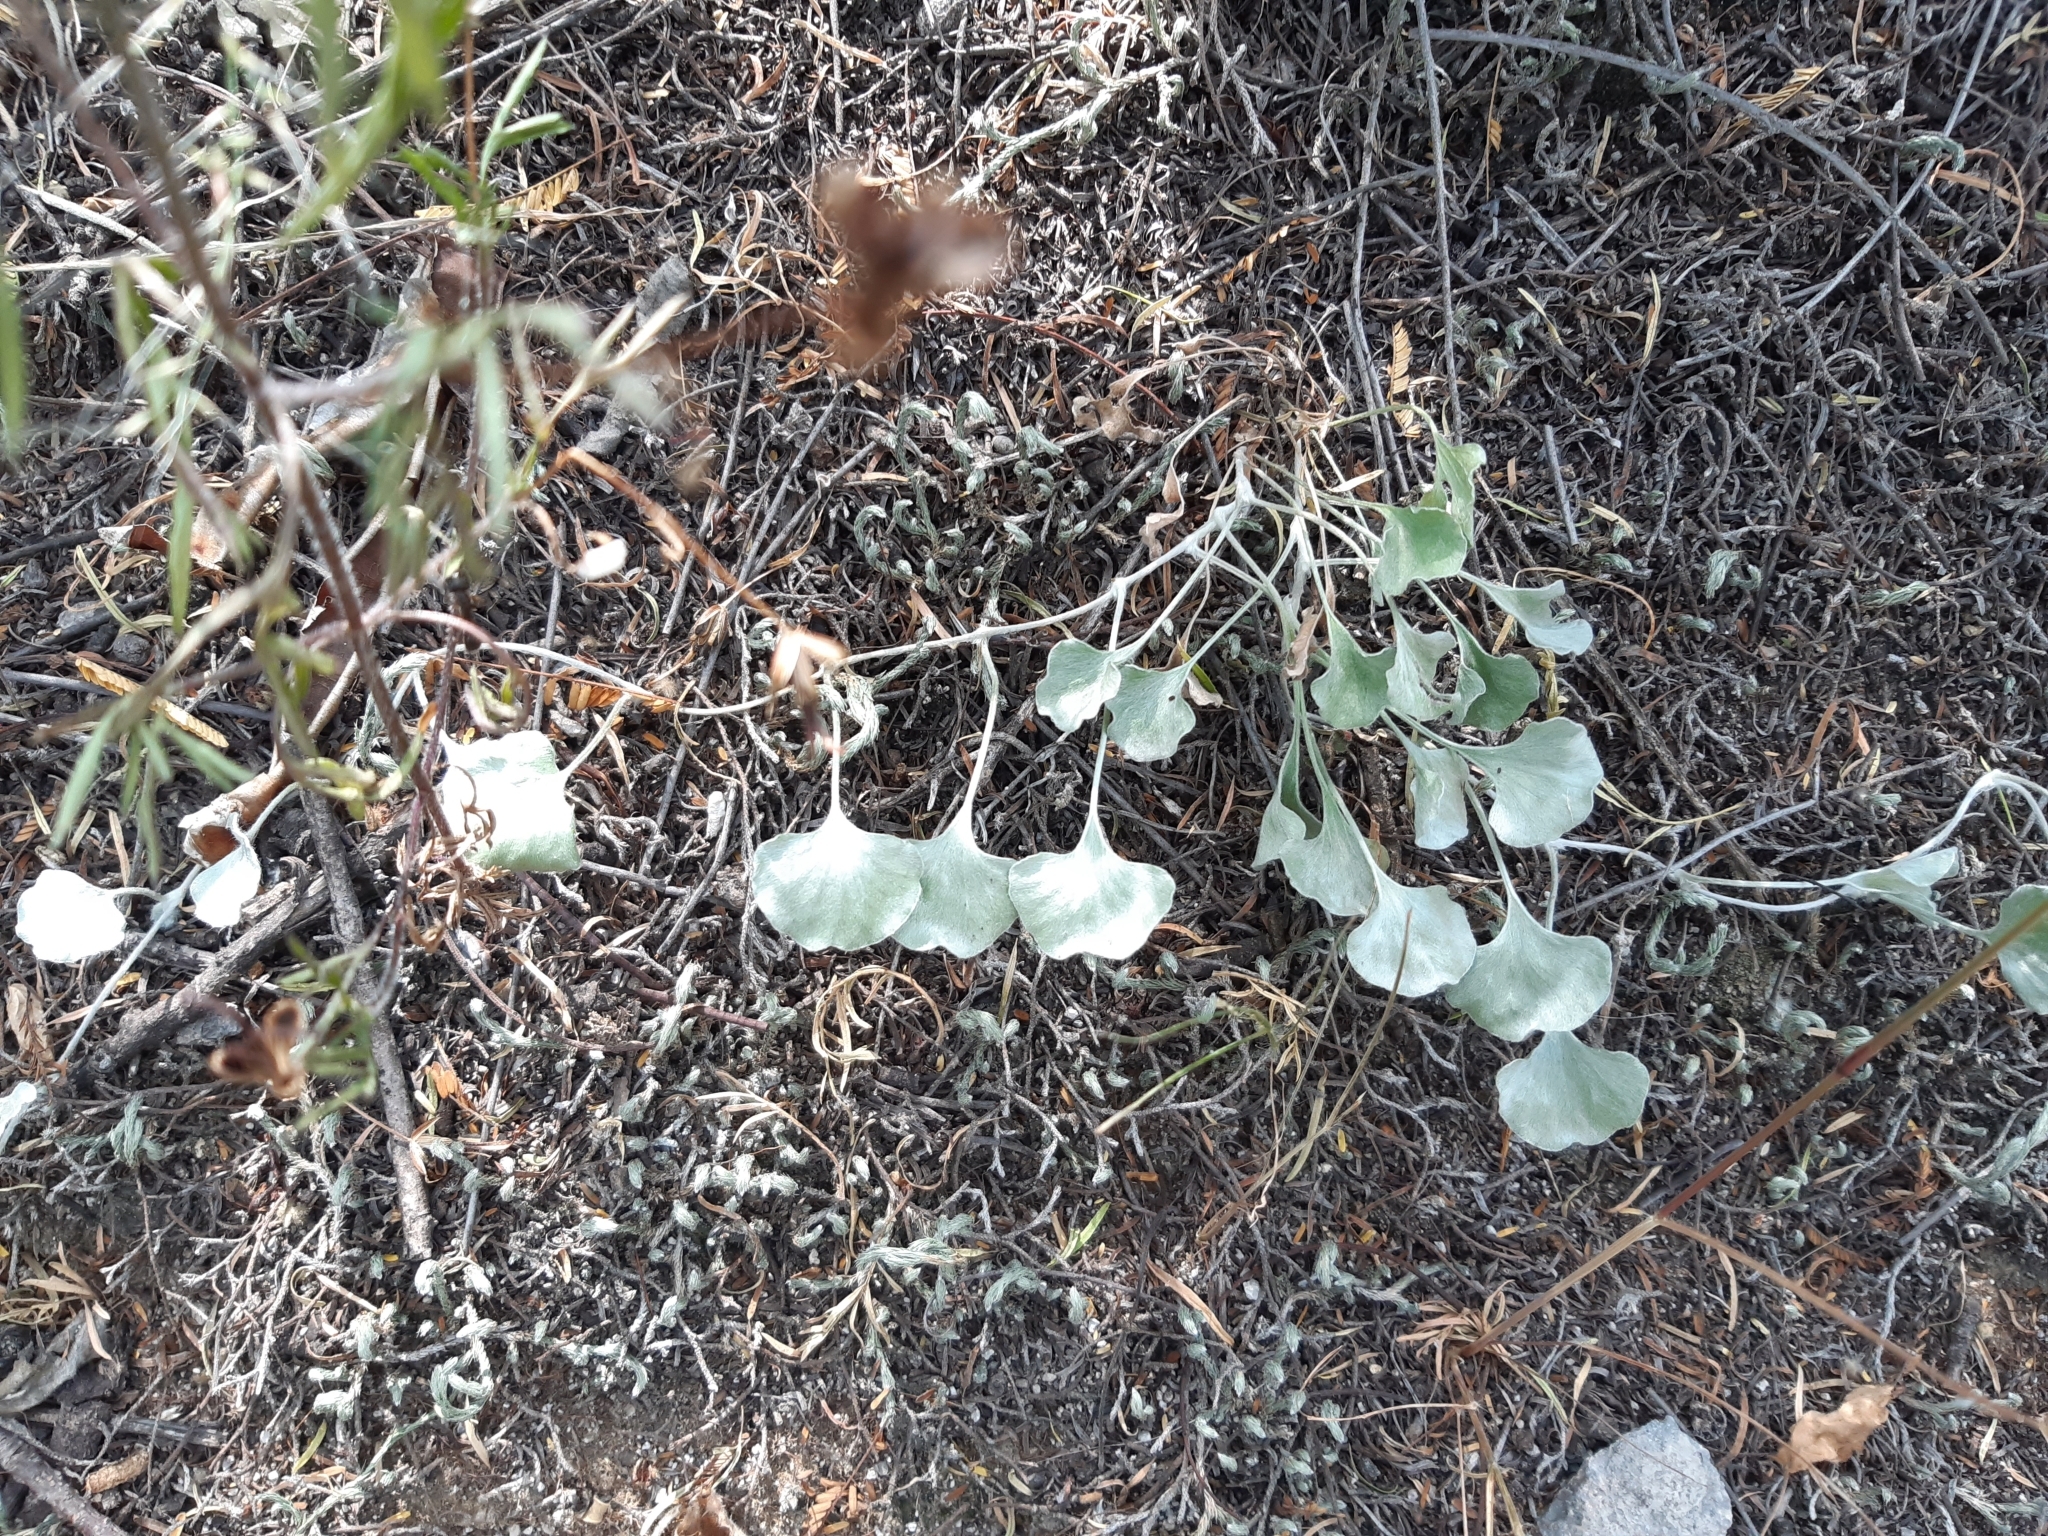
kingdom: Plantae
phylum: Tracheophyta
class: Magnoliopsida
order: Solanales
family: Convolvulaceae
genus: Dichondra
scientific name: Dichondra argentea
